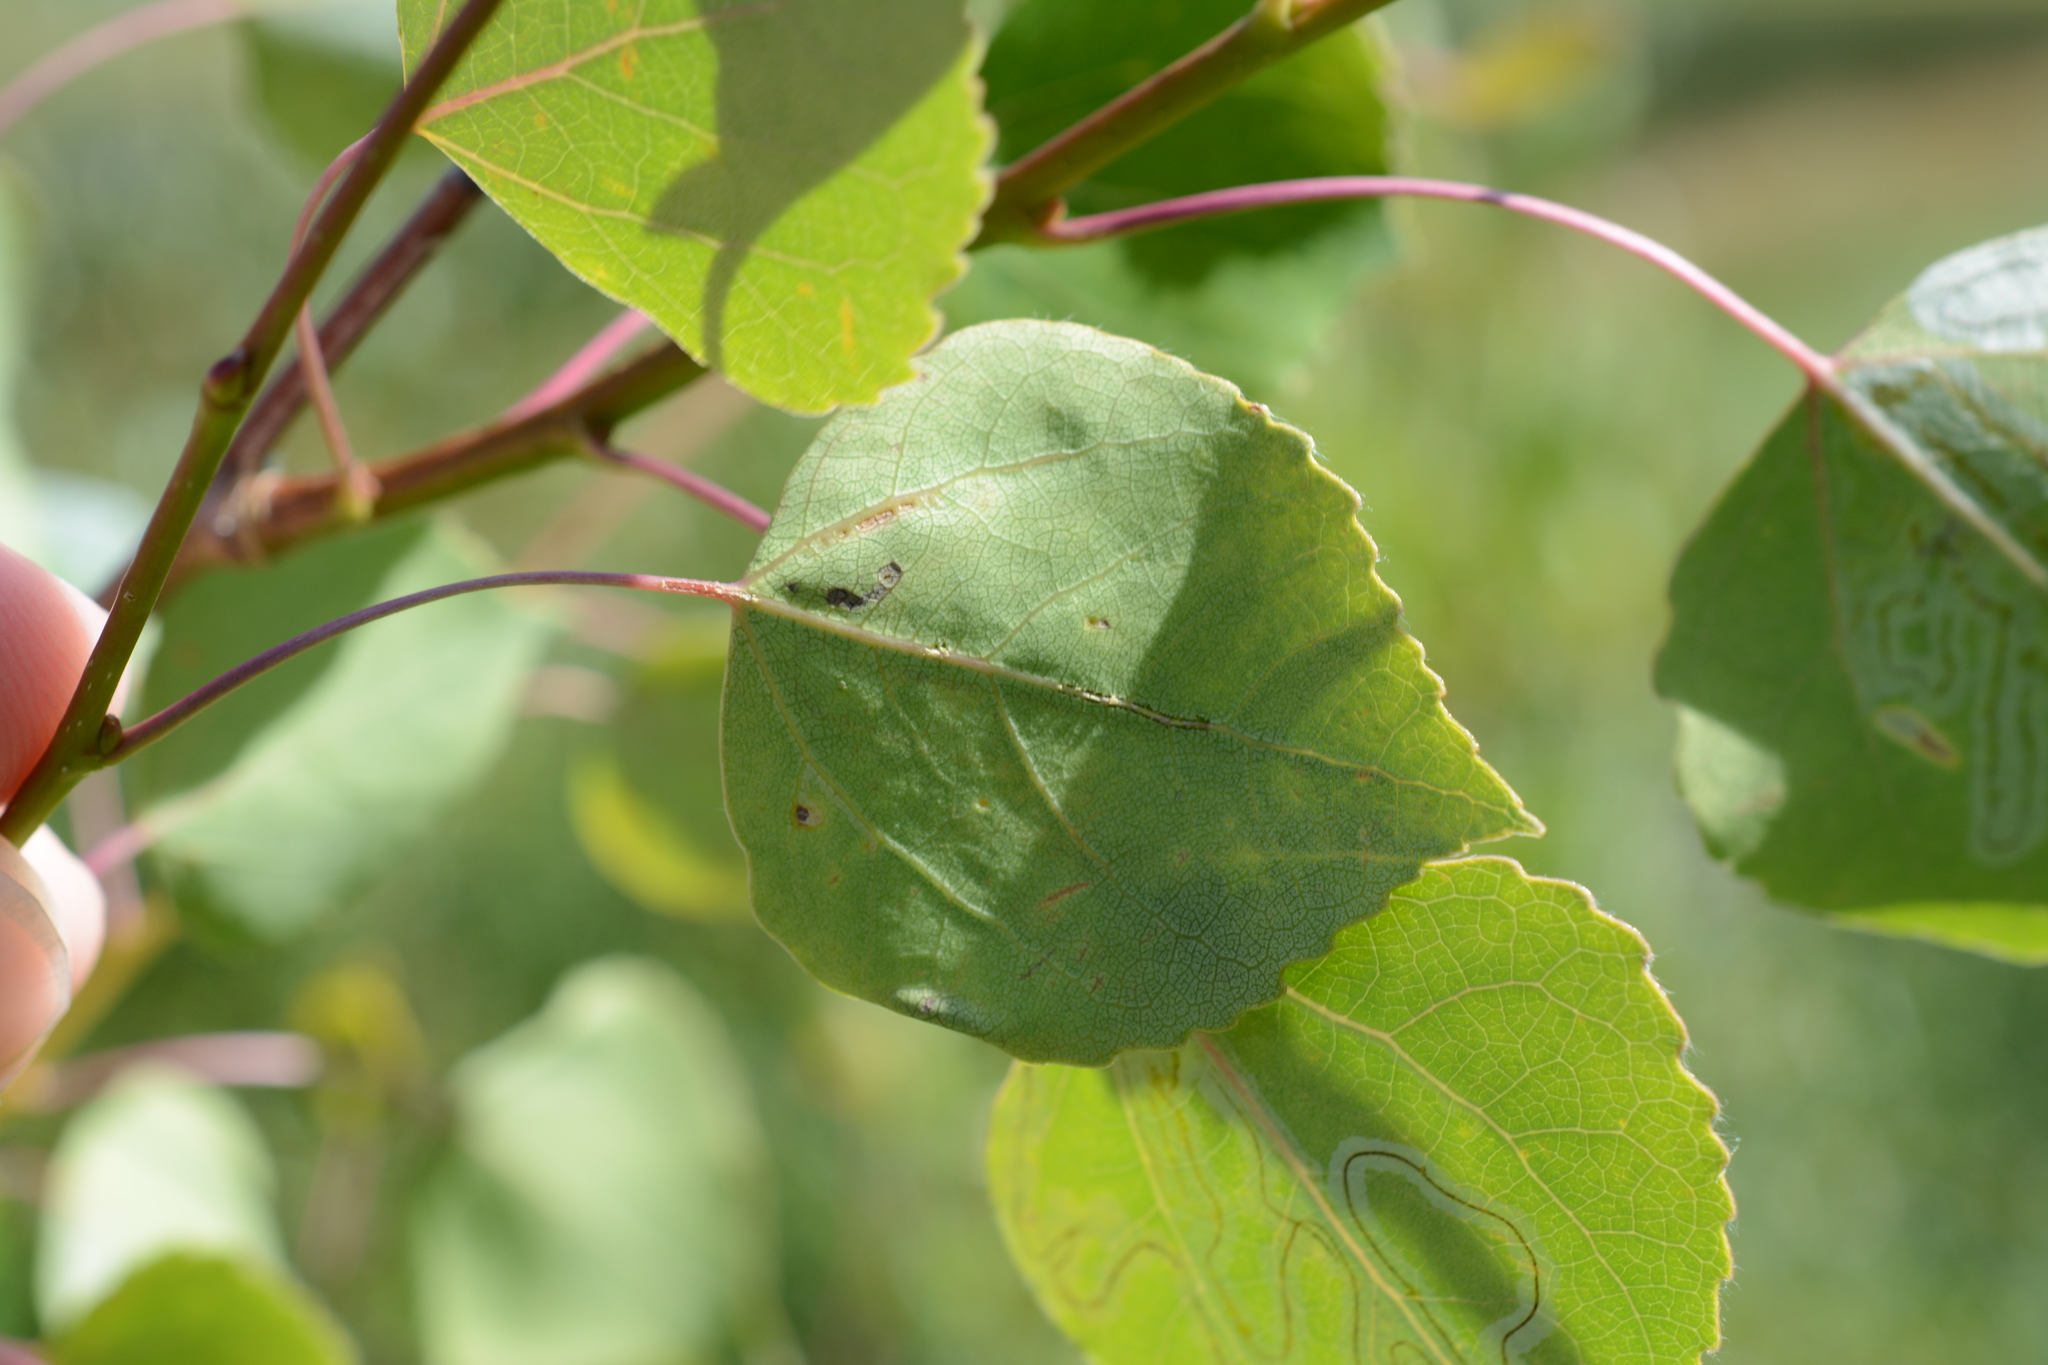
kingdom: Plantae
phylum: Tracheophyta
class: Magnoliopsida
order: Malpighiales
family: Salicaceae
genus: Populus
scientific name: Populus tremuloides
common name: Quaking aspen
